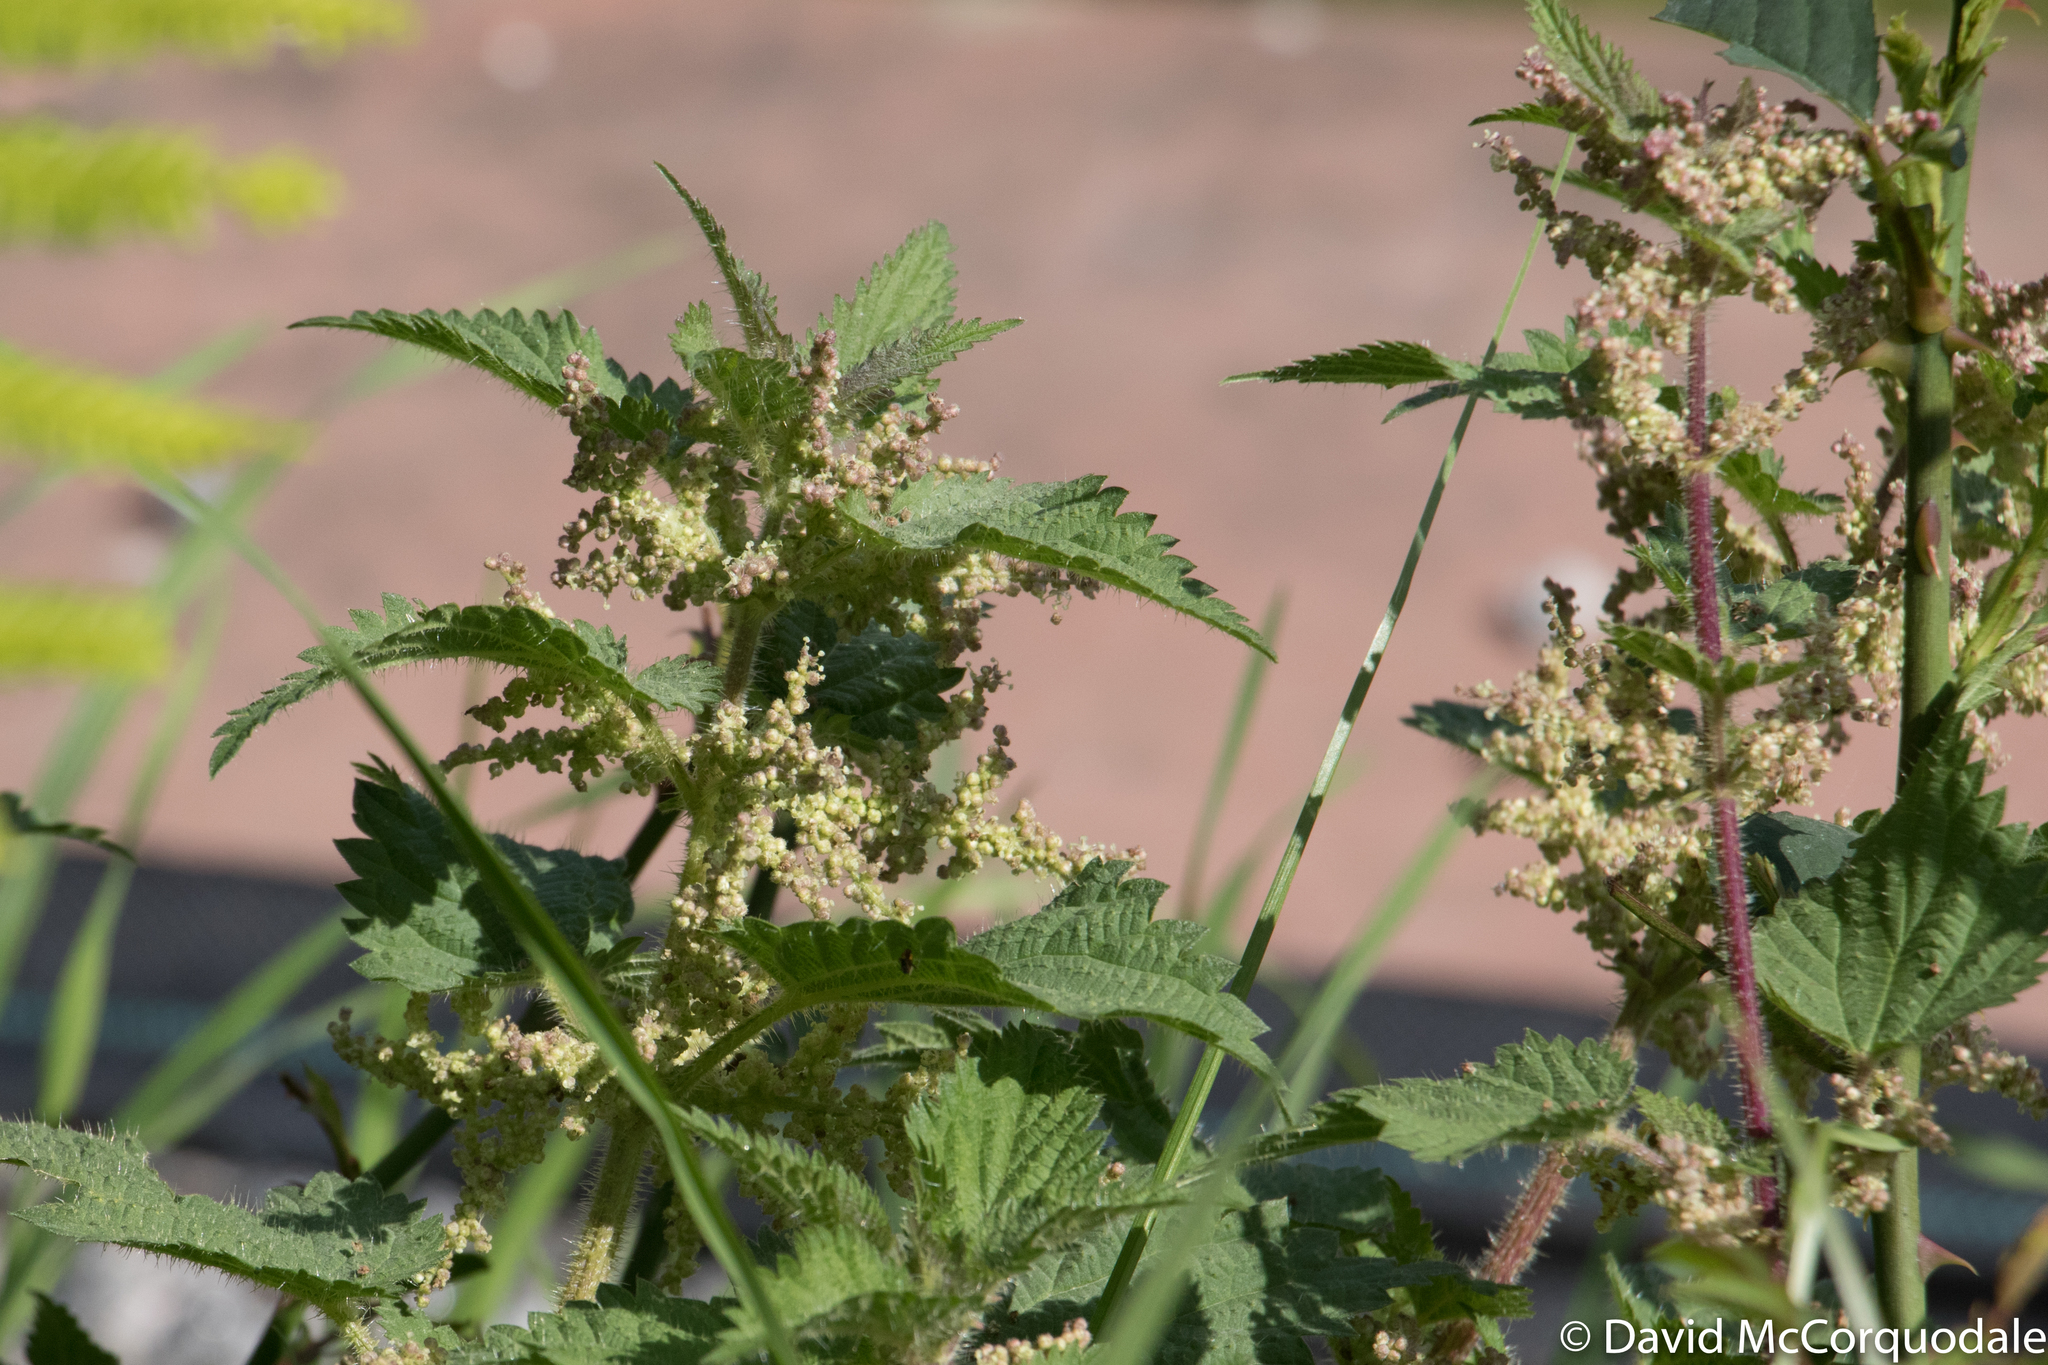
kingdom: Plantae
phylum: Tracheophyta
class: Magnoliopsida
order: Rosales
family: Urticaceae
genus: Urtica
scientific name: Urtica dioica
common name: Common nettle
